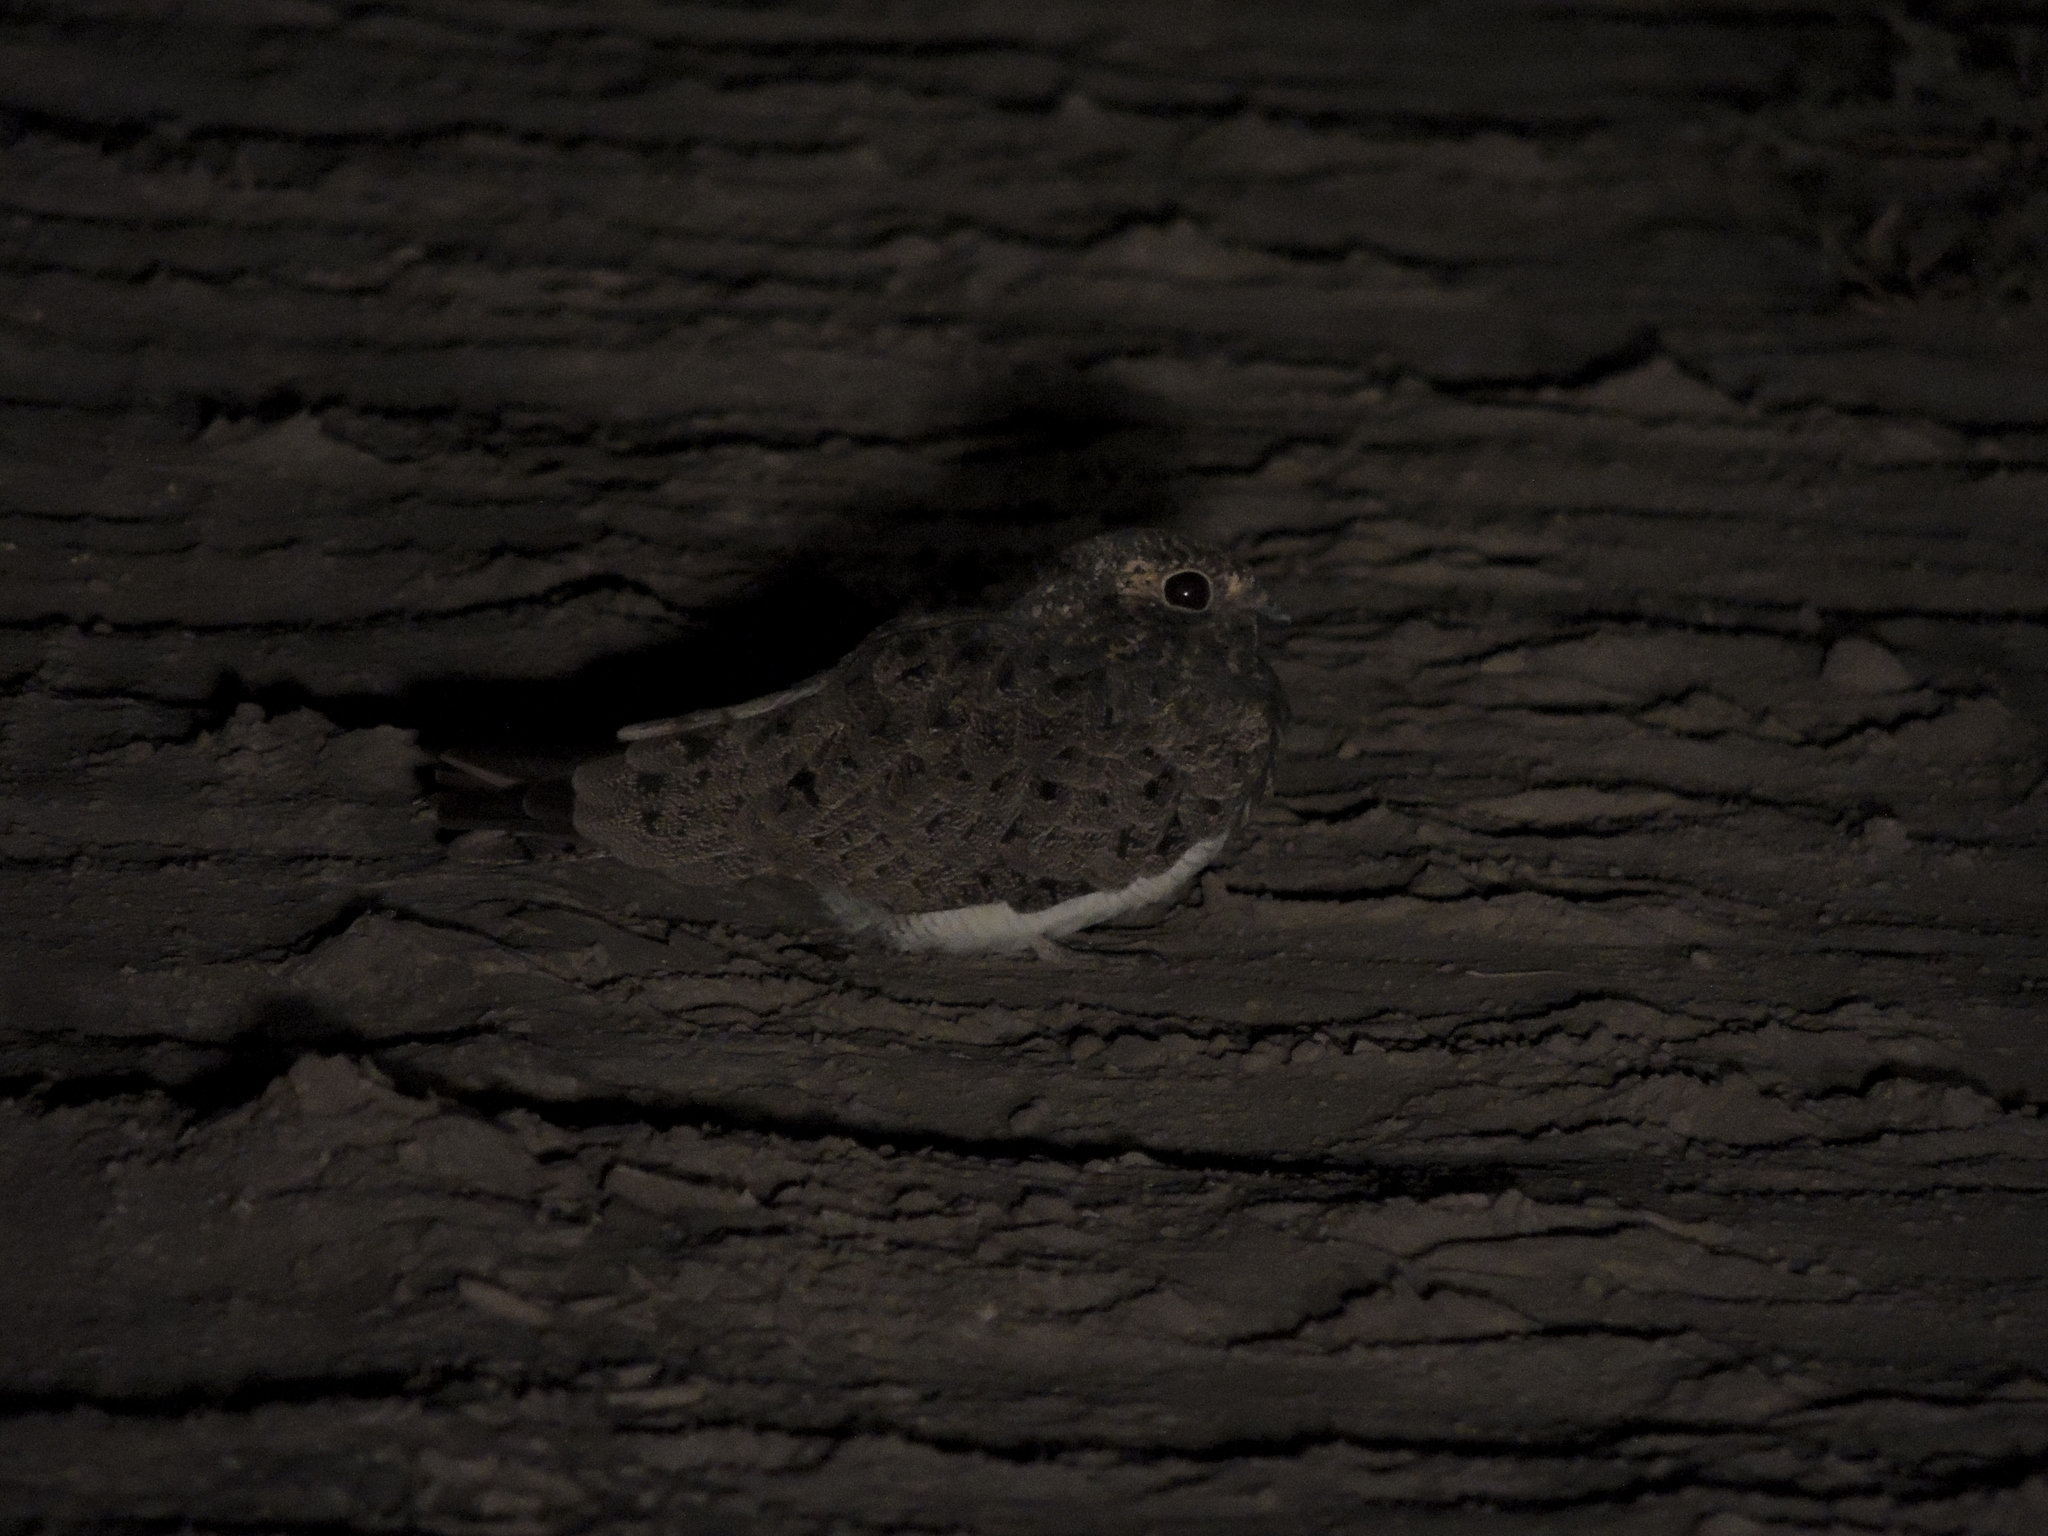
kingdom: Animalia
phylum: Chordata
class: Aves
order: Caprimulgiformes
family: Caprimulgidae
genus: Chordeiles
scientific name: Chordeiles nacunda
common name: Nacunda nighthawk
